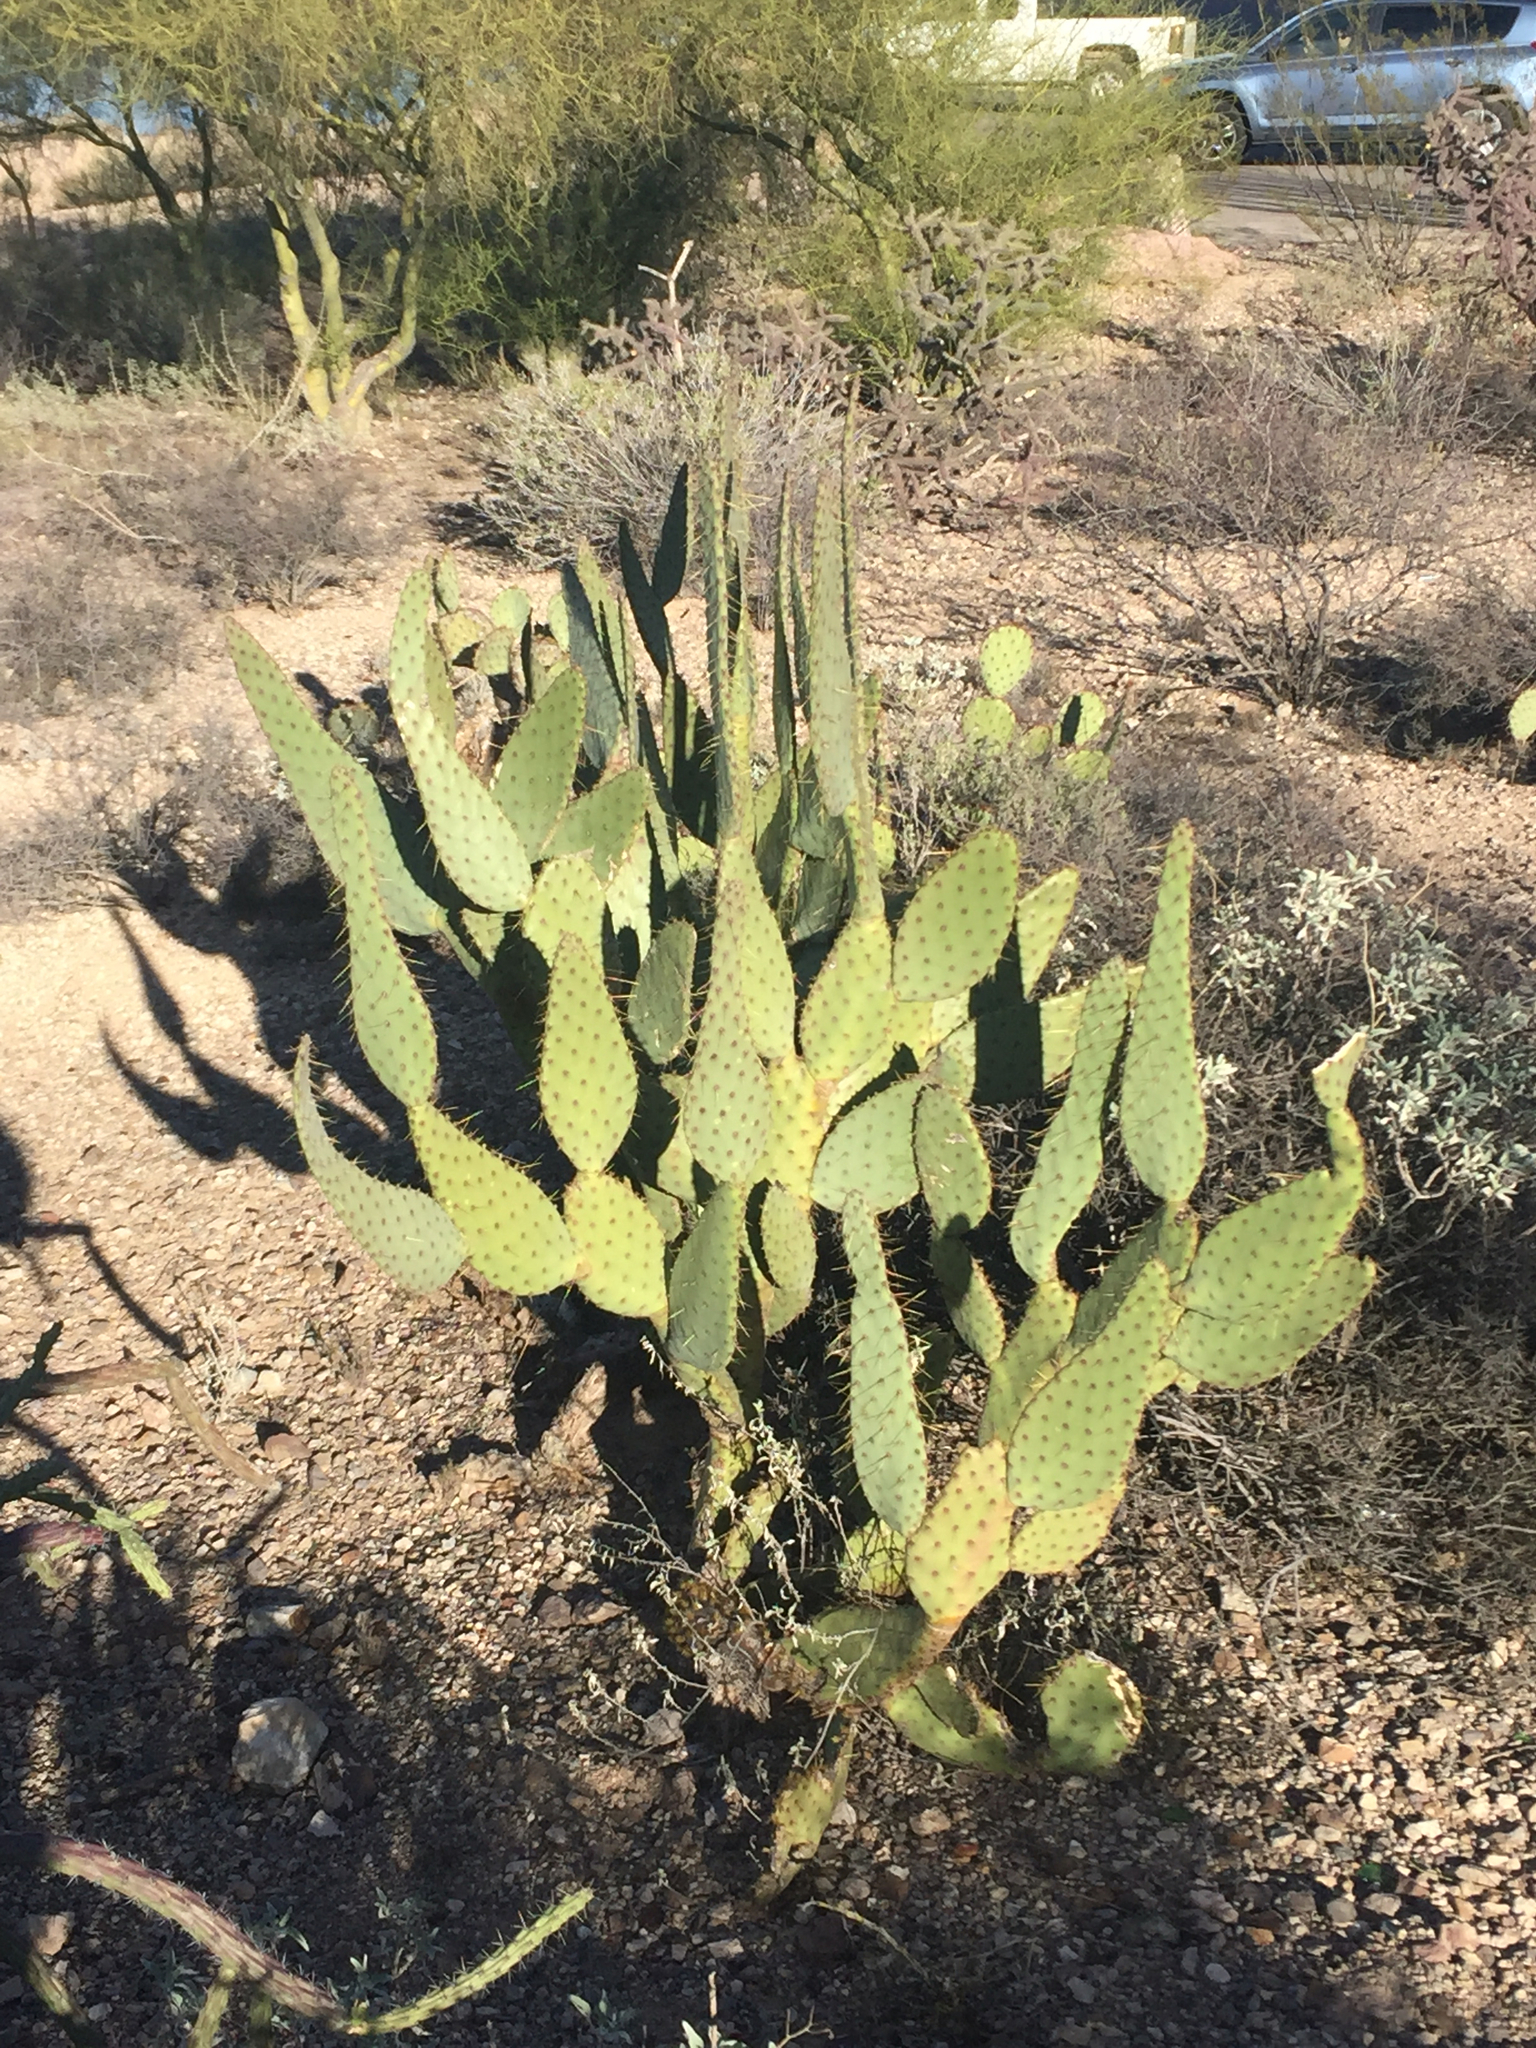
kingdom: Plantae
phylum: Tracheophyta
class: Magnoliopsida
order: Caryophyllales
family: Cactaceae
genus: Opuntia
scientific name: Opuntia engelmannii
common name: Cactus-apple
